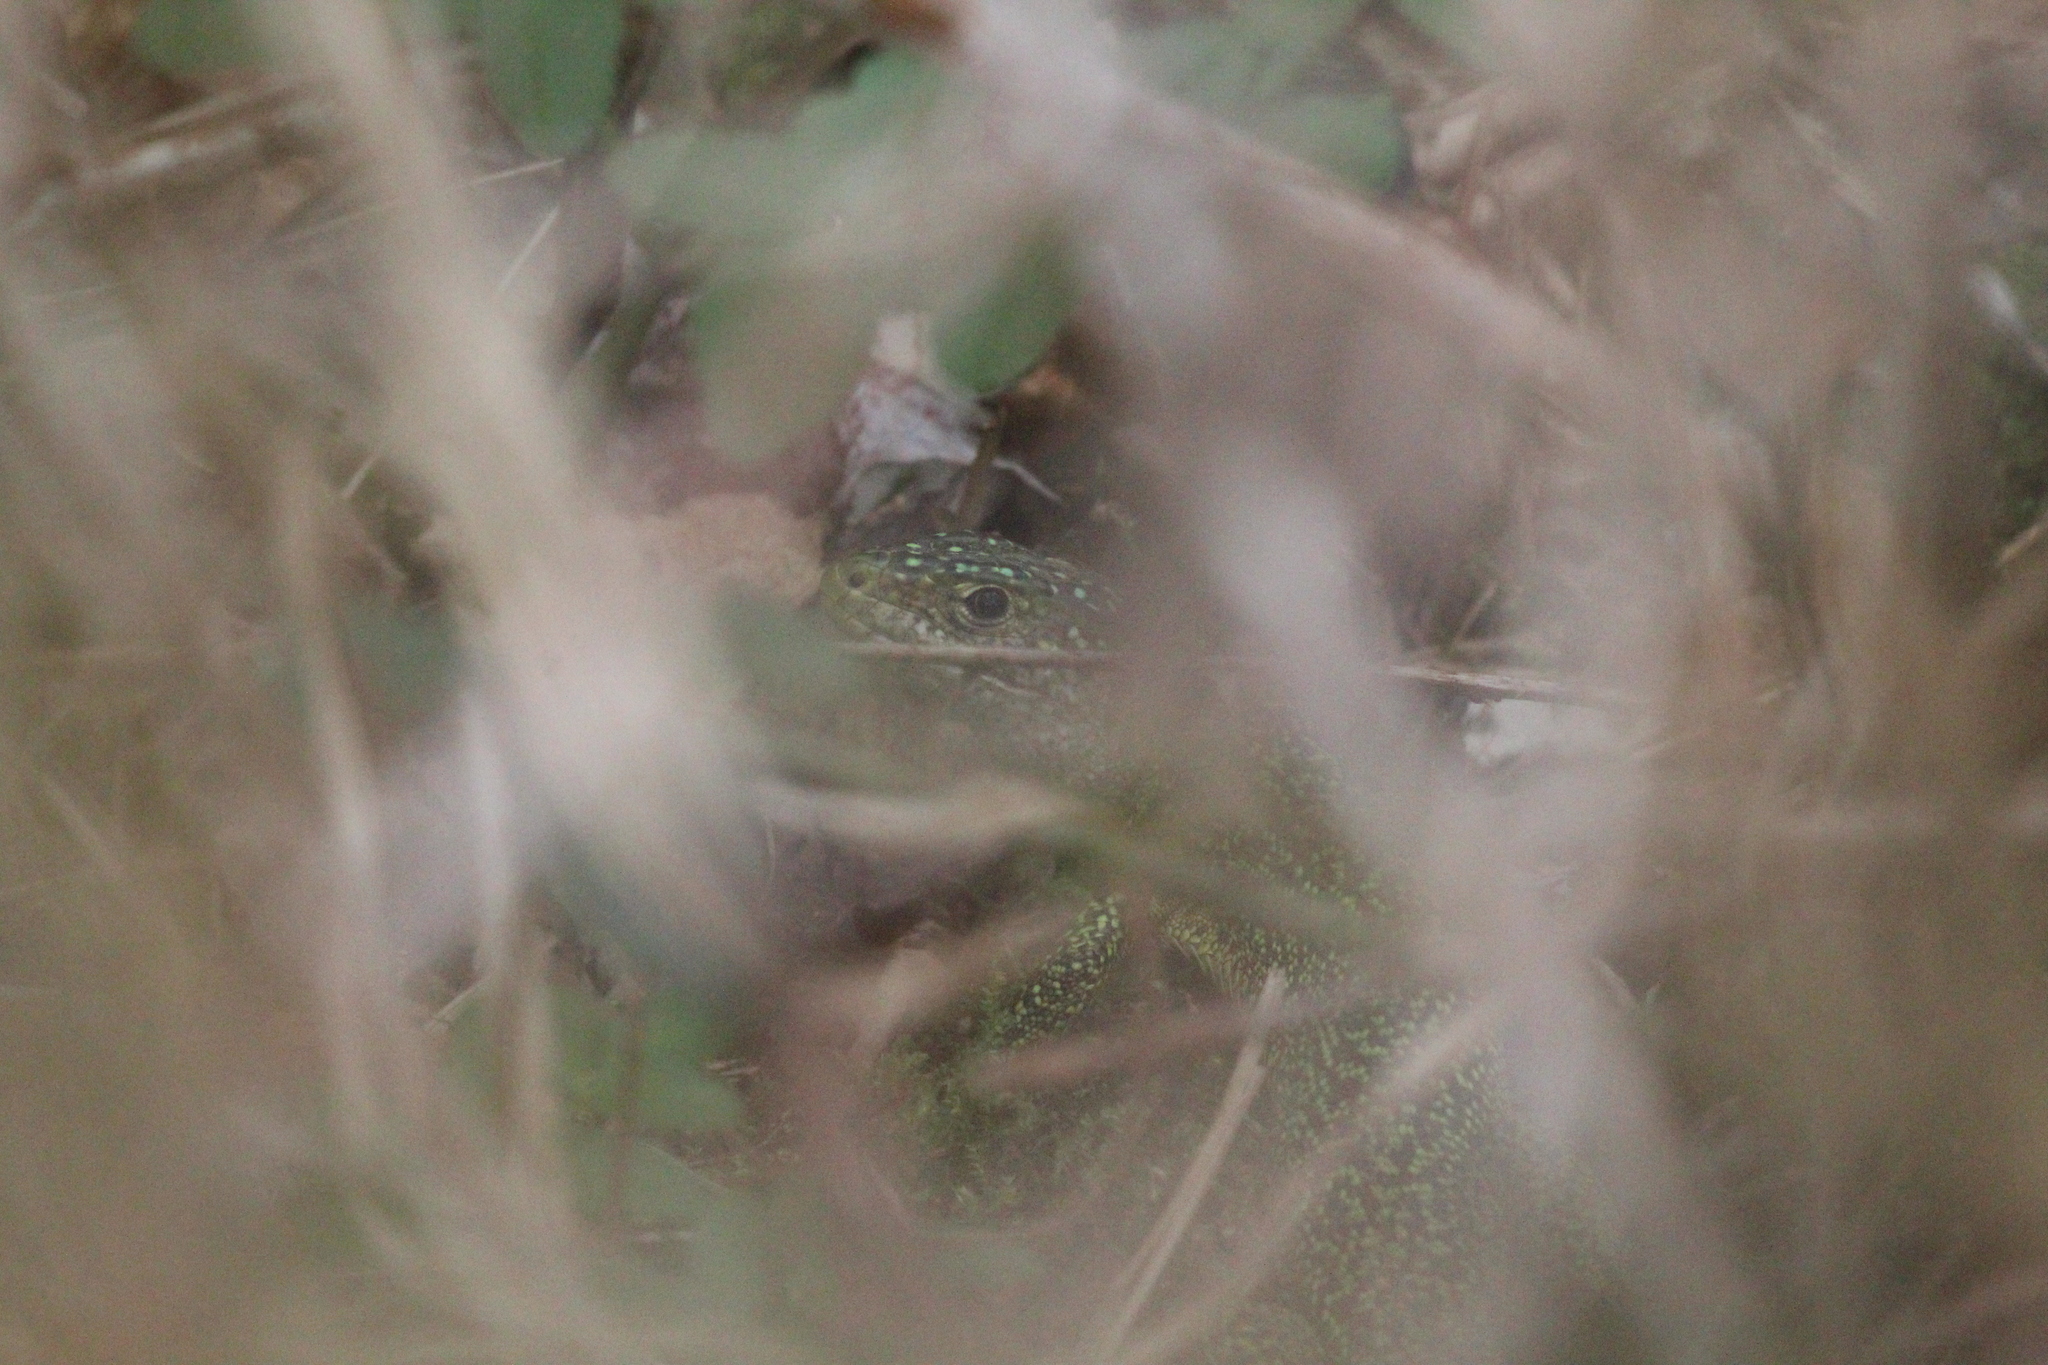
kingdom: Animalia
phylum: Chordata
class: Squamata
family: Lacertidae
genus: Lacerta
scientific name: Lacerta bilineata
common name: Western green lizard
